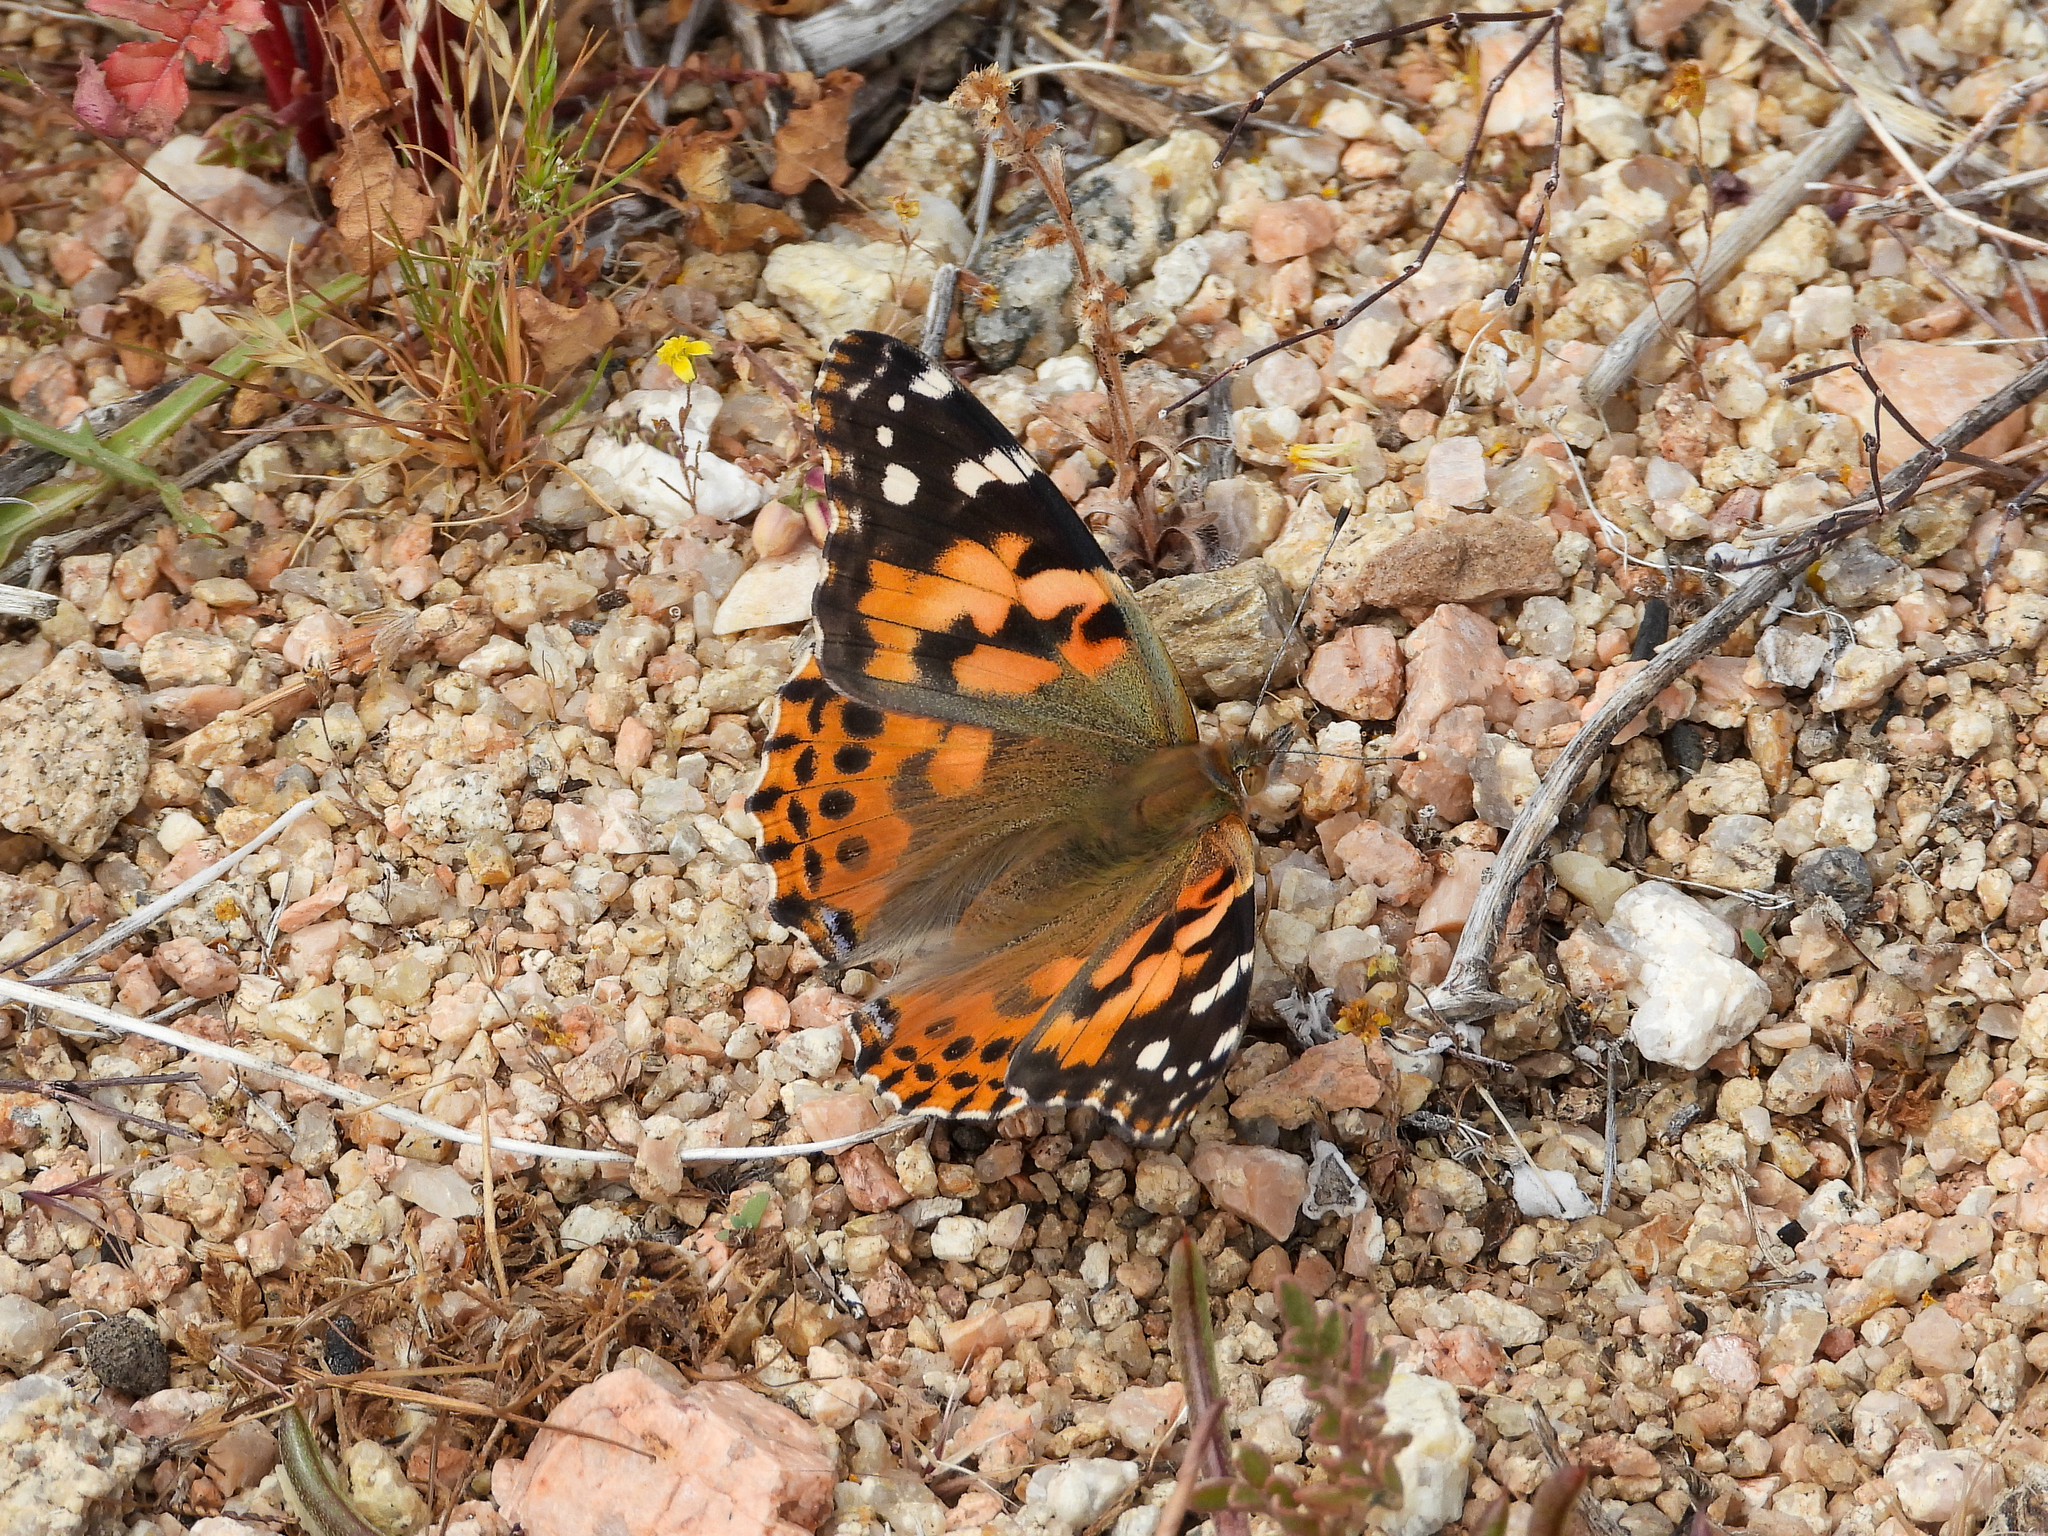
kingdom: Animalia
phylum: Arthropoda
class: Insecta
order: Lepidoptera
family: Nymphalidae
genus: Vanessa
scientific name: Vanessa cardui
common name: Painted lady
